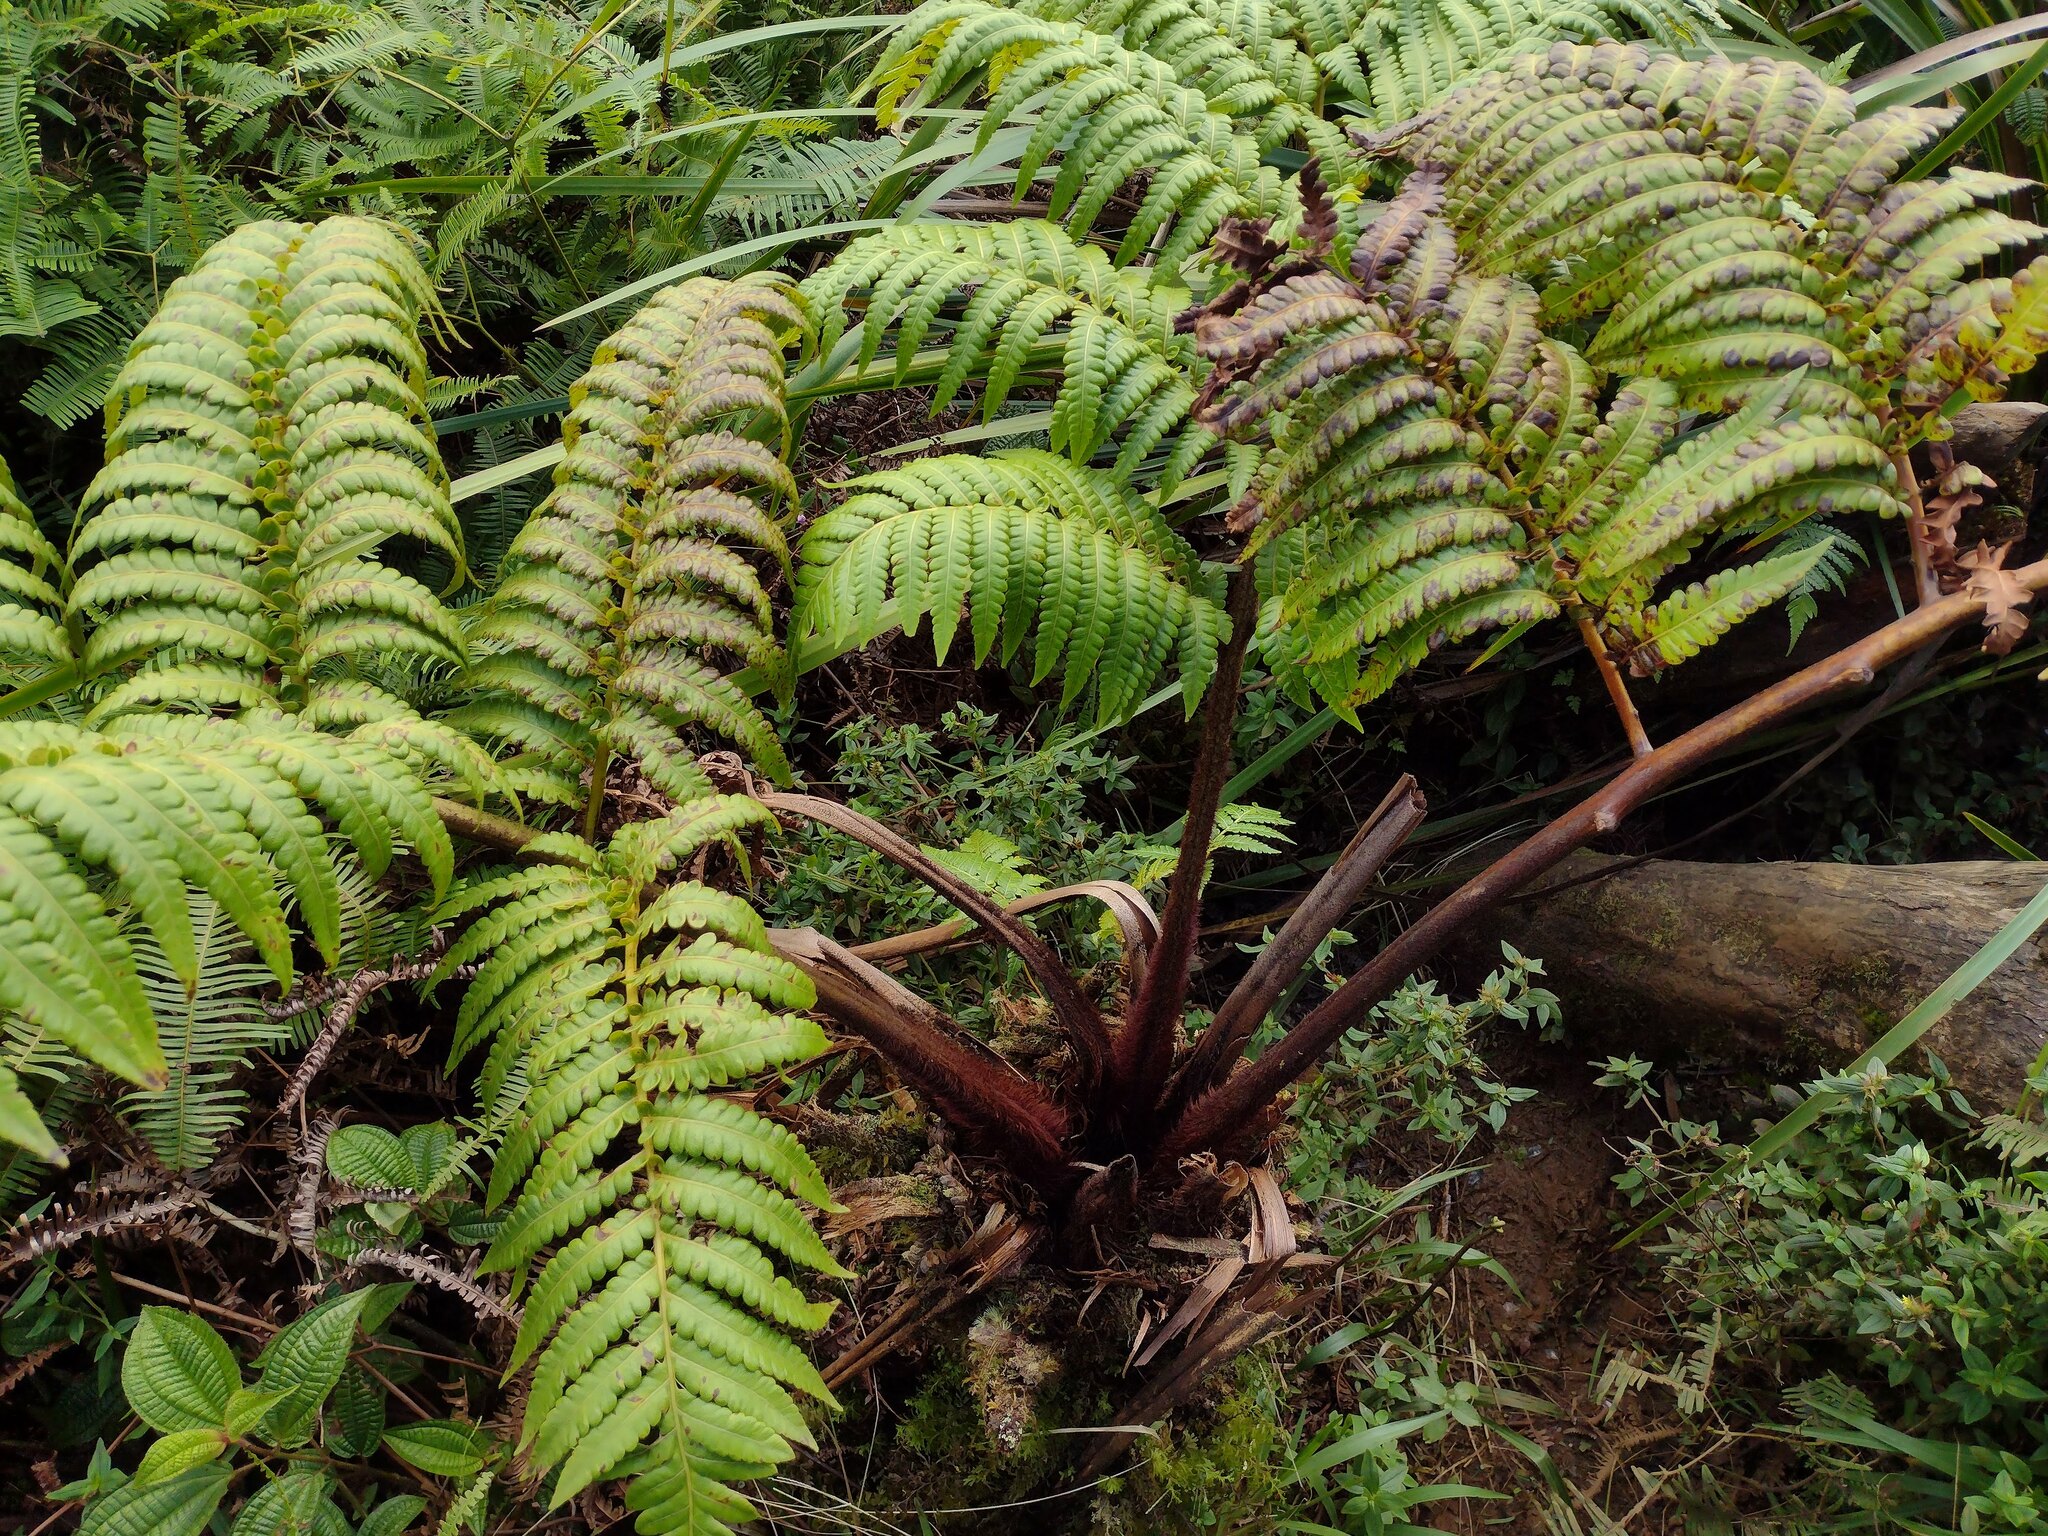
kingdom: Plantae
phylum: Tracheophyta
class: Polypodiopsida
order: Cyatheales
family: Cibotiaceae
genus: Cibotium
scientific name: Cibotium menziesii
